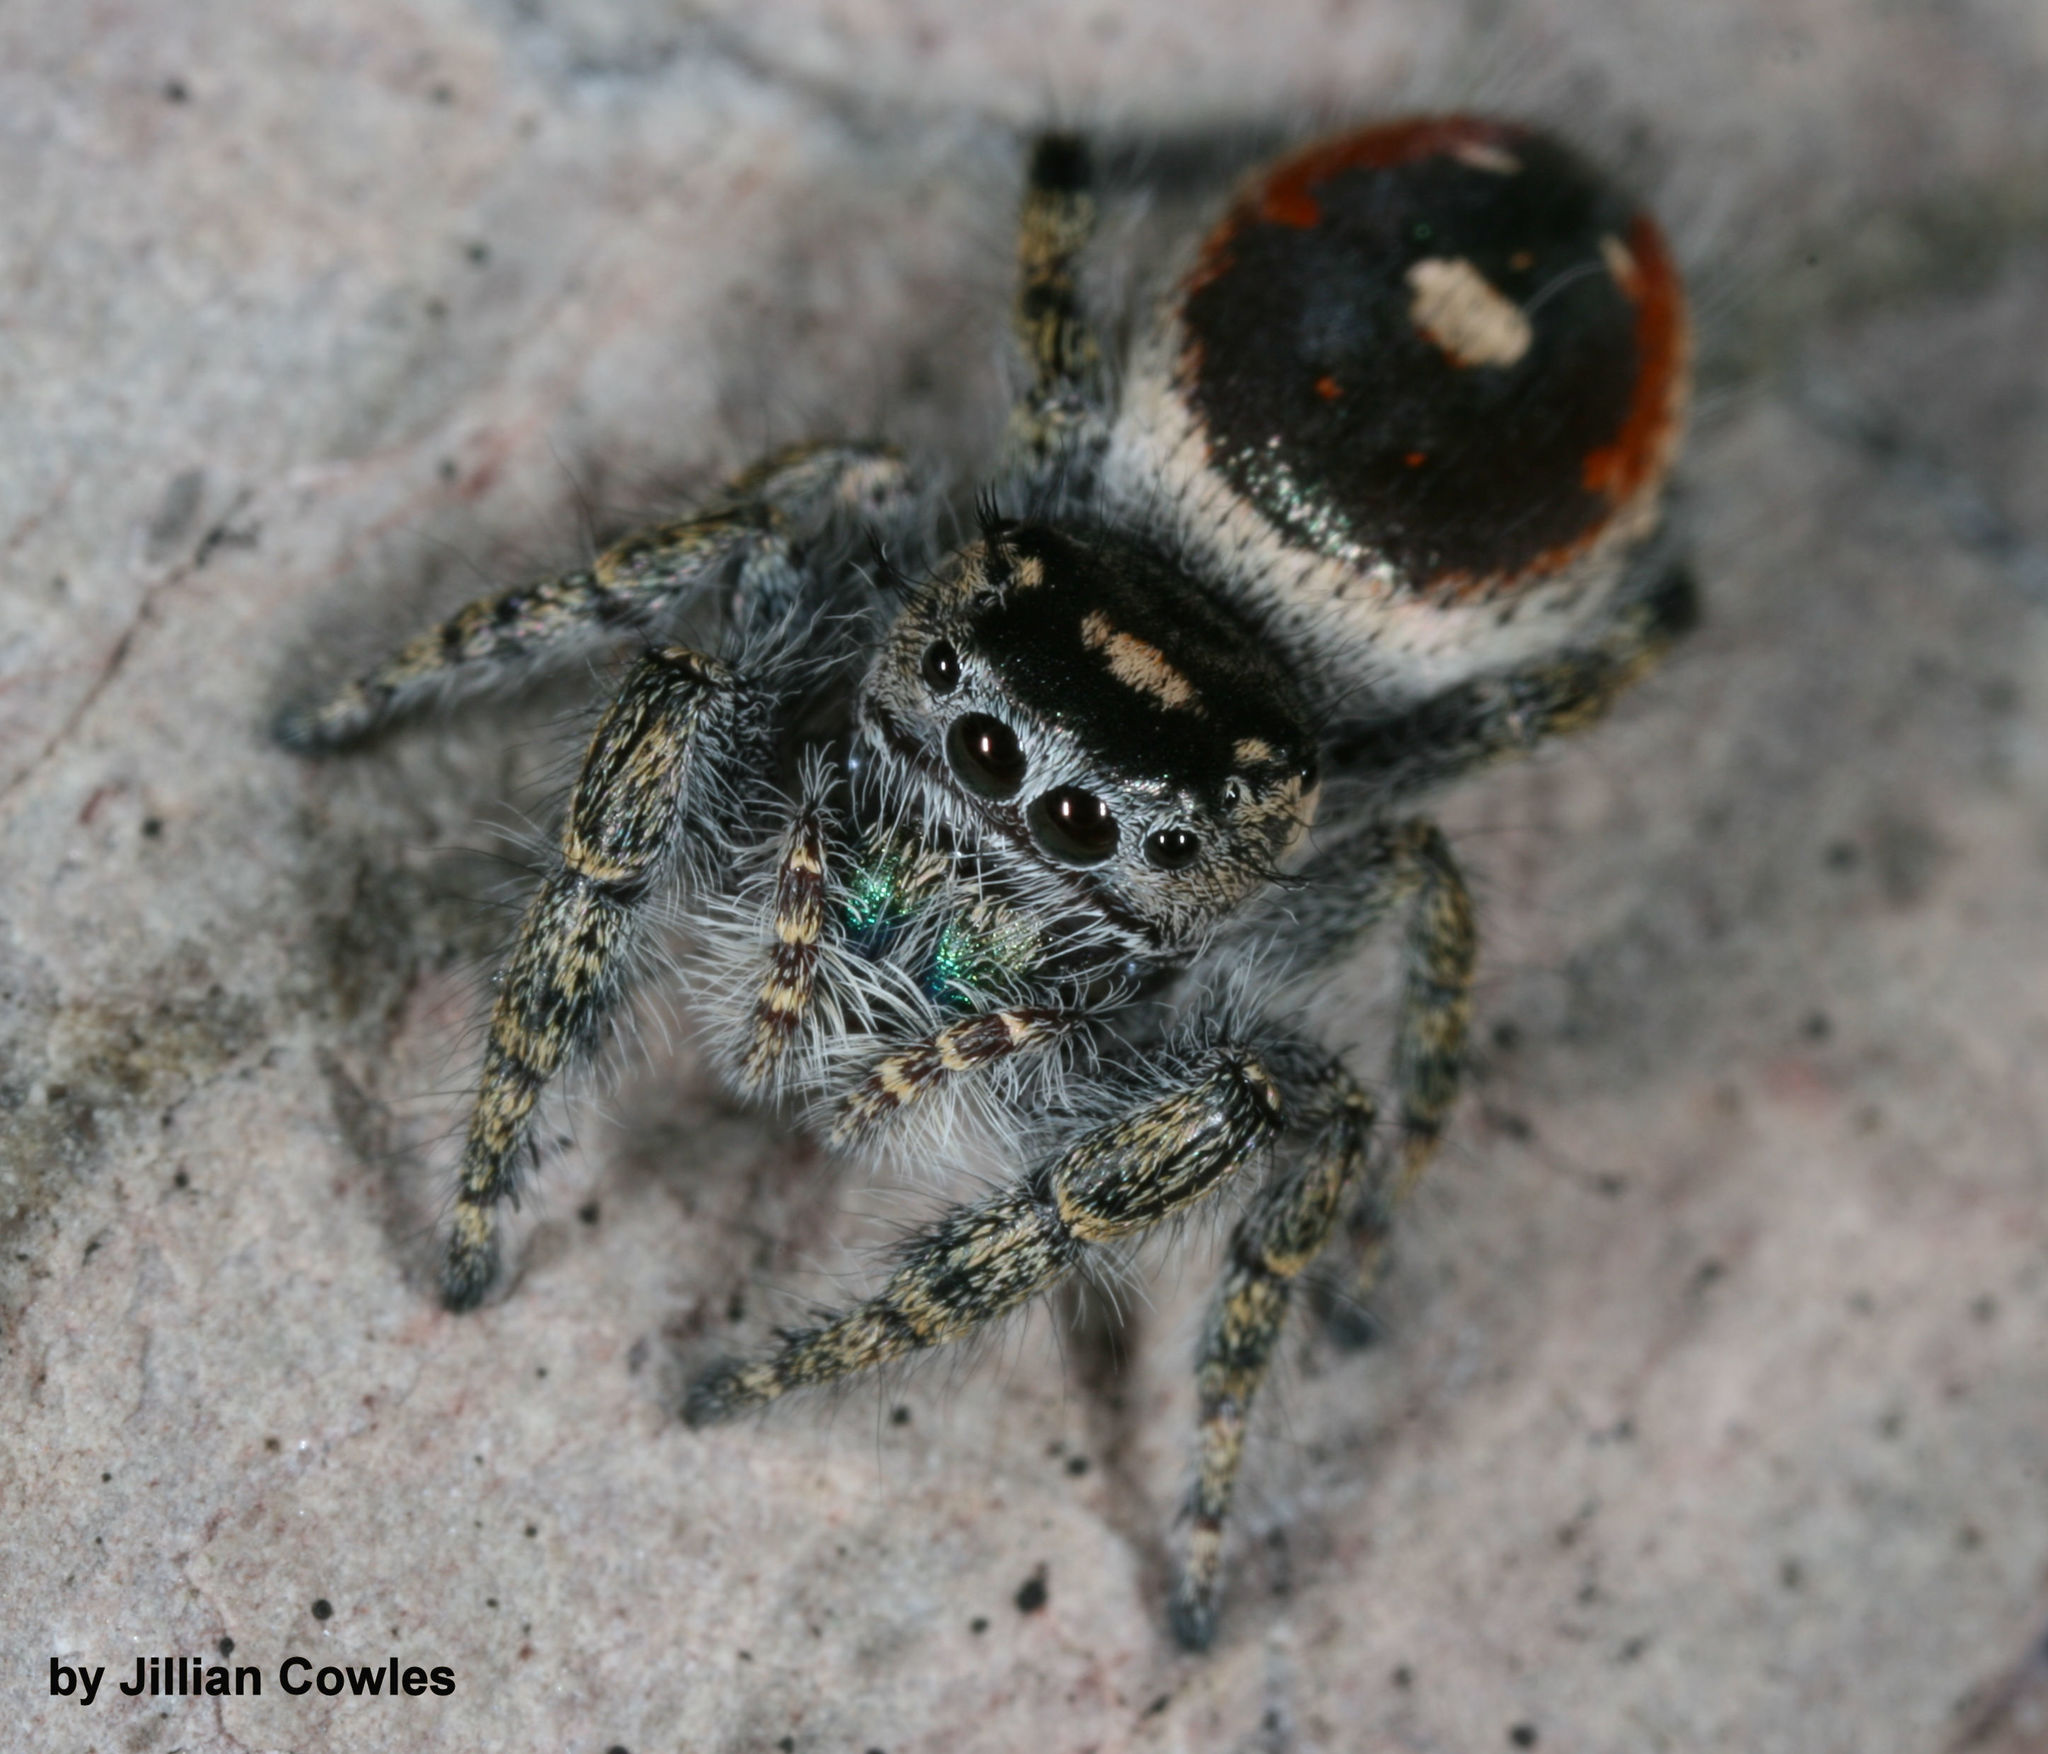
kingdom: Animalia
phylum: Arthropoda
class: Arachnida
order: Araneae
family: Salticidae
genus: Phidippus
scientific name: Phidippus californicus
